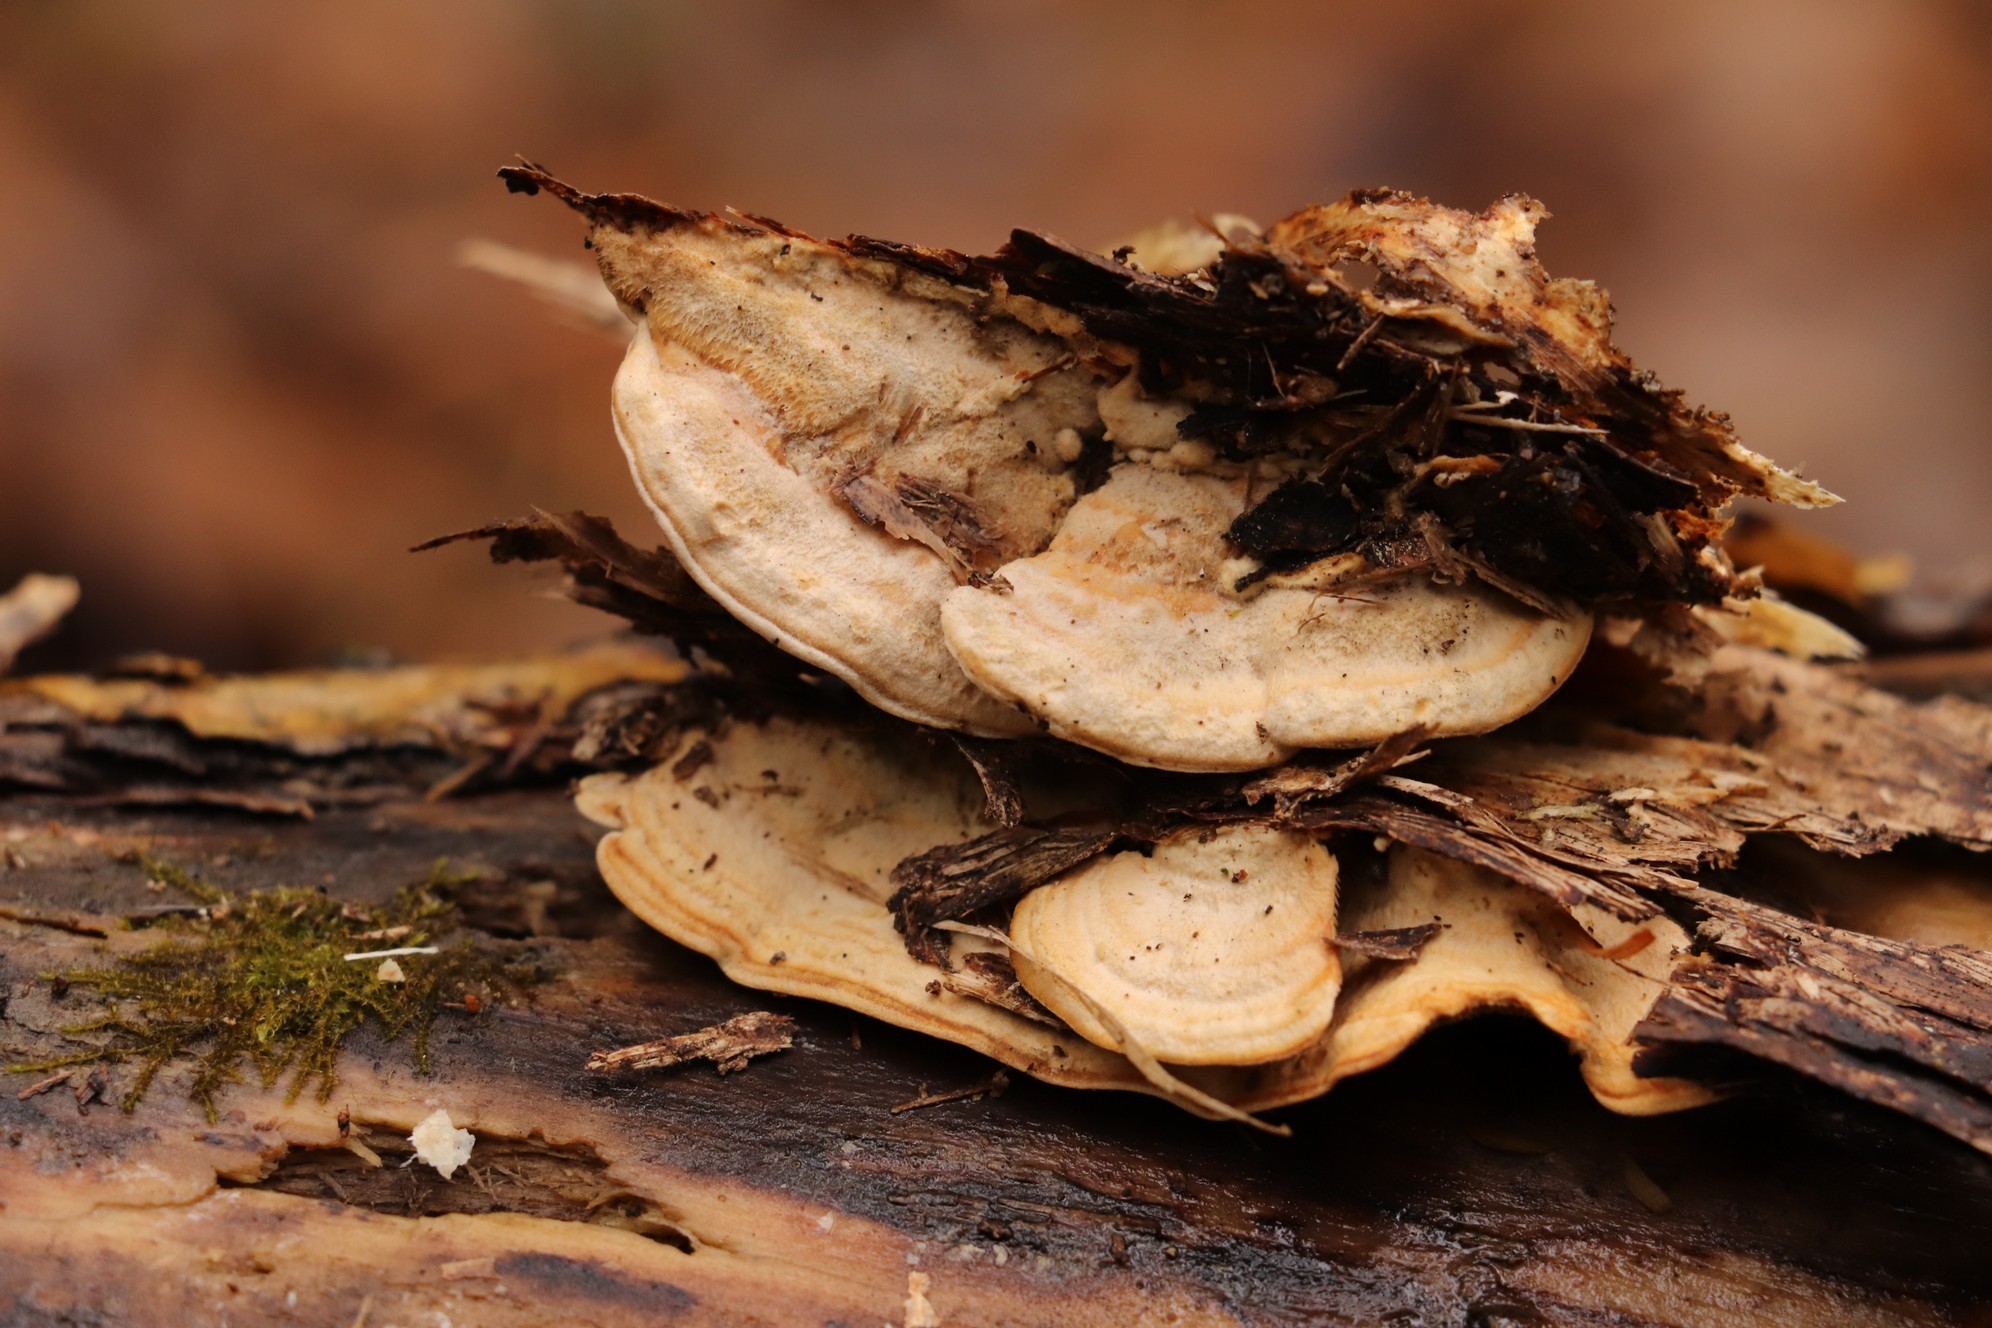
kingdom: Fungi
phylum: Basidiomycota
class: Agaricomycetes
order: Polyporales
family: Steccherinaceae
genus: Metuloidea
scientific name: Metuloidea murashkinskyi
